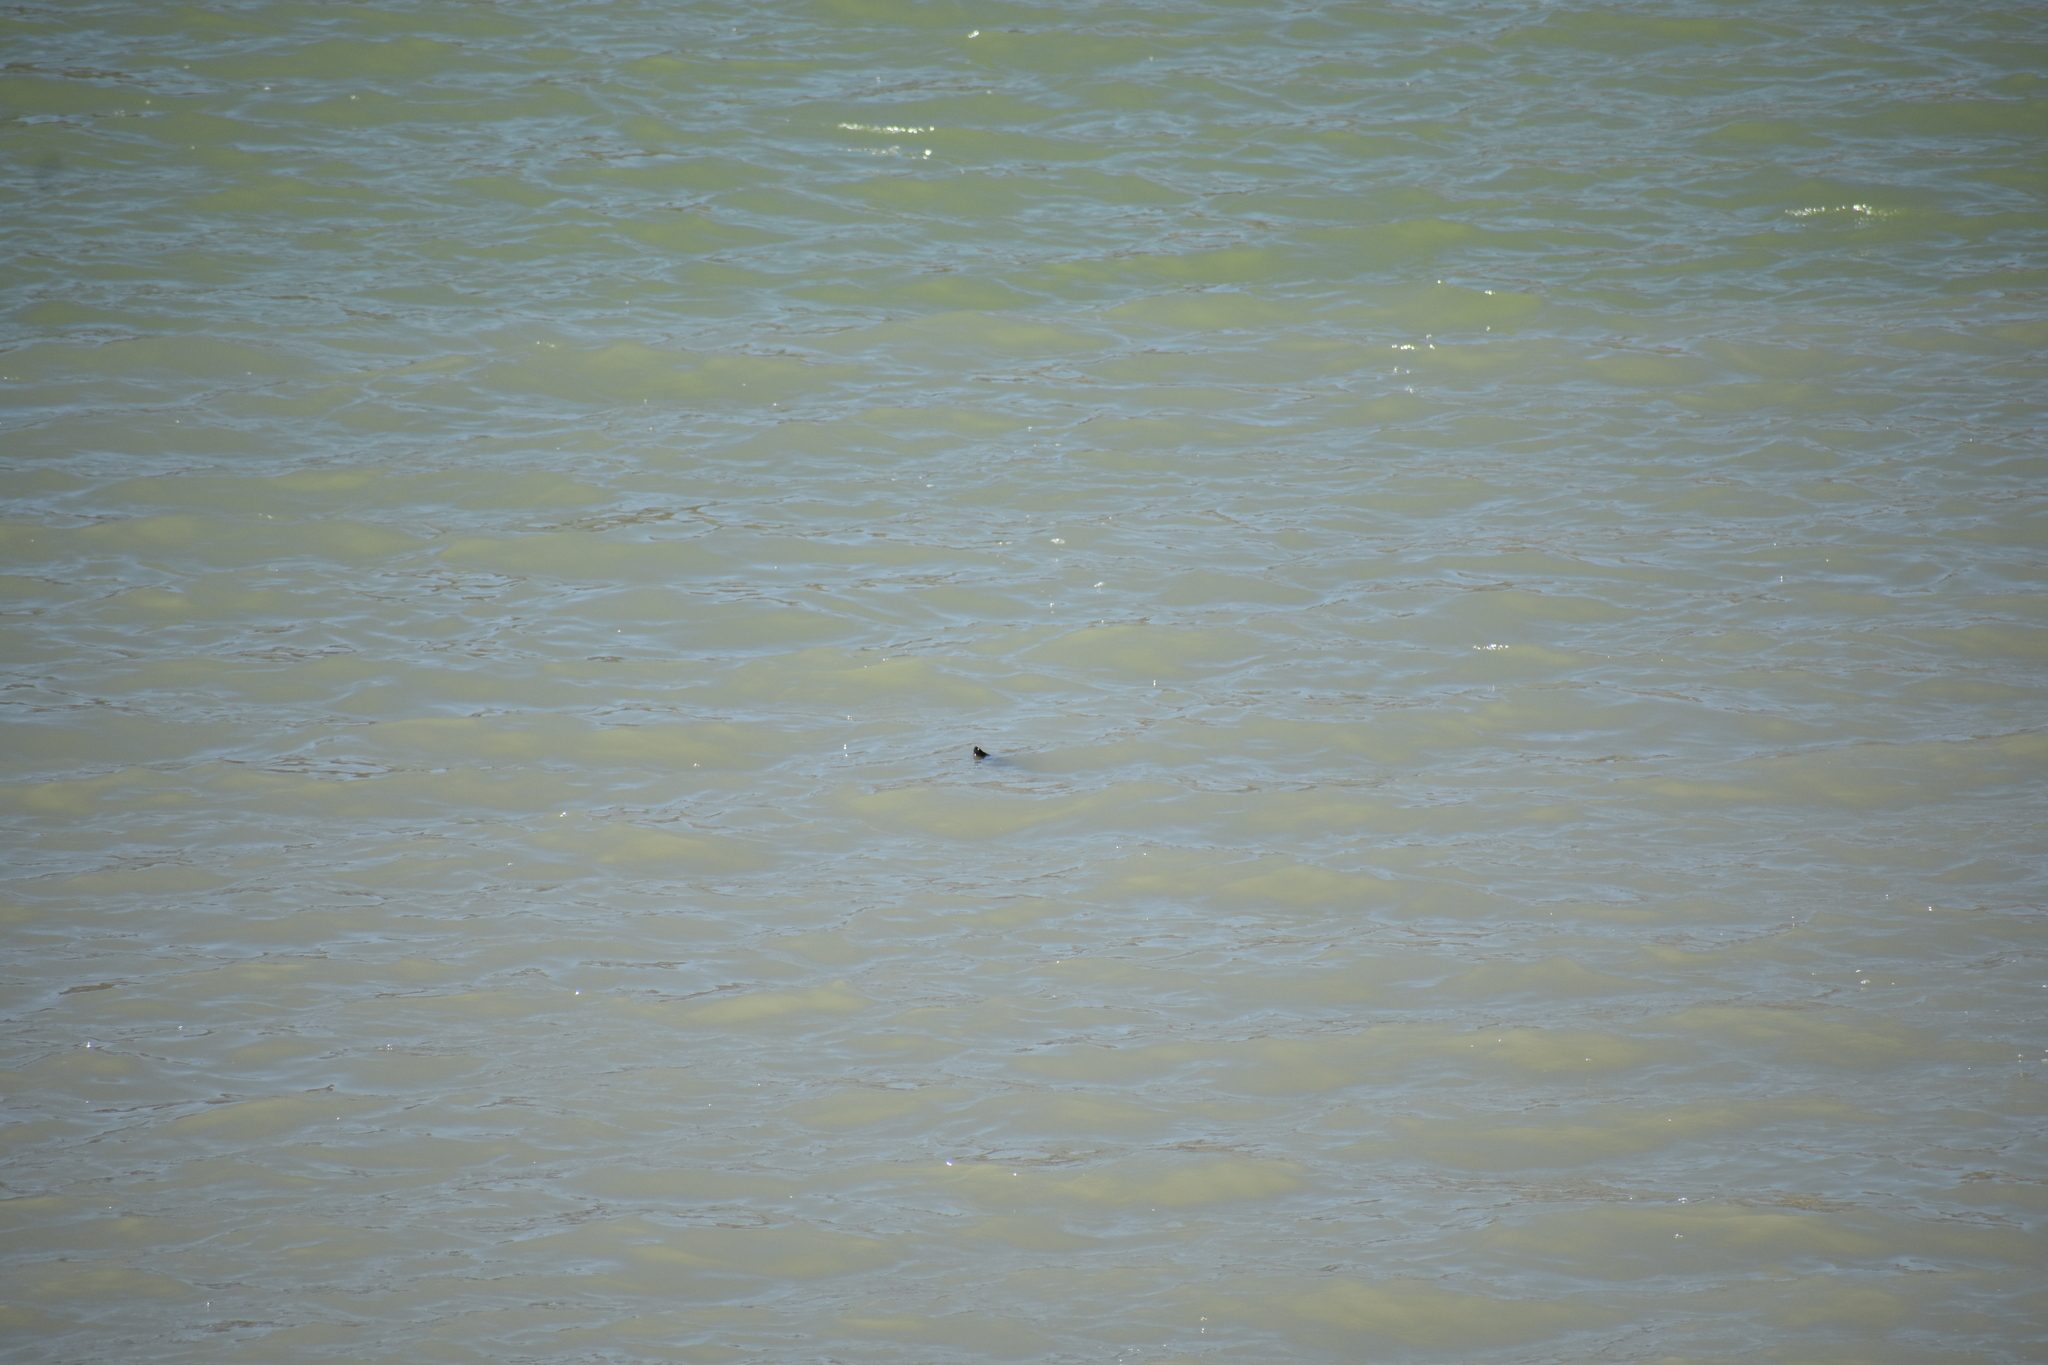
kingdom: Animalia
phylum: Chordata
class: Testudines
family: Emydidae
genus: Trachemys
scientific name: Trachemys scripta
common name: Slider
